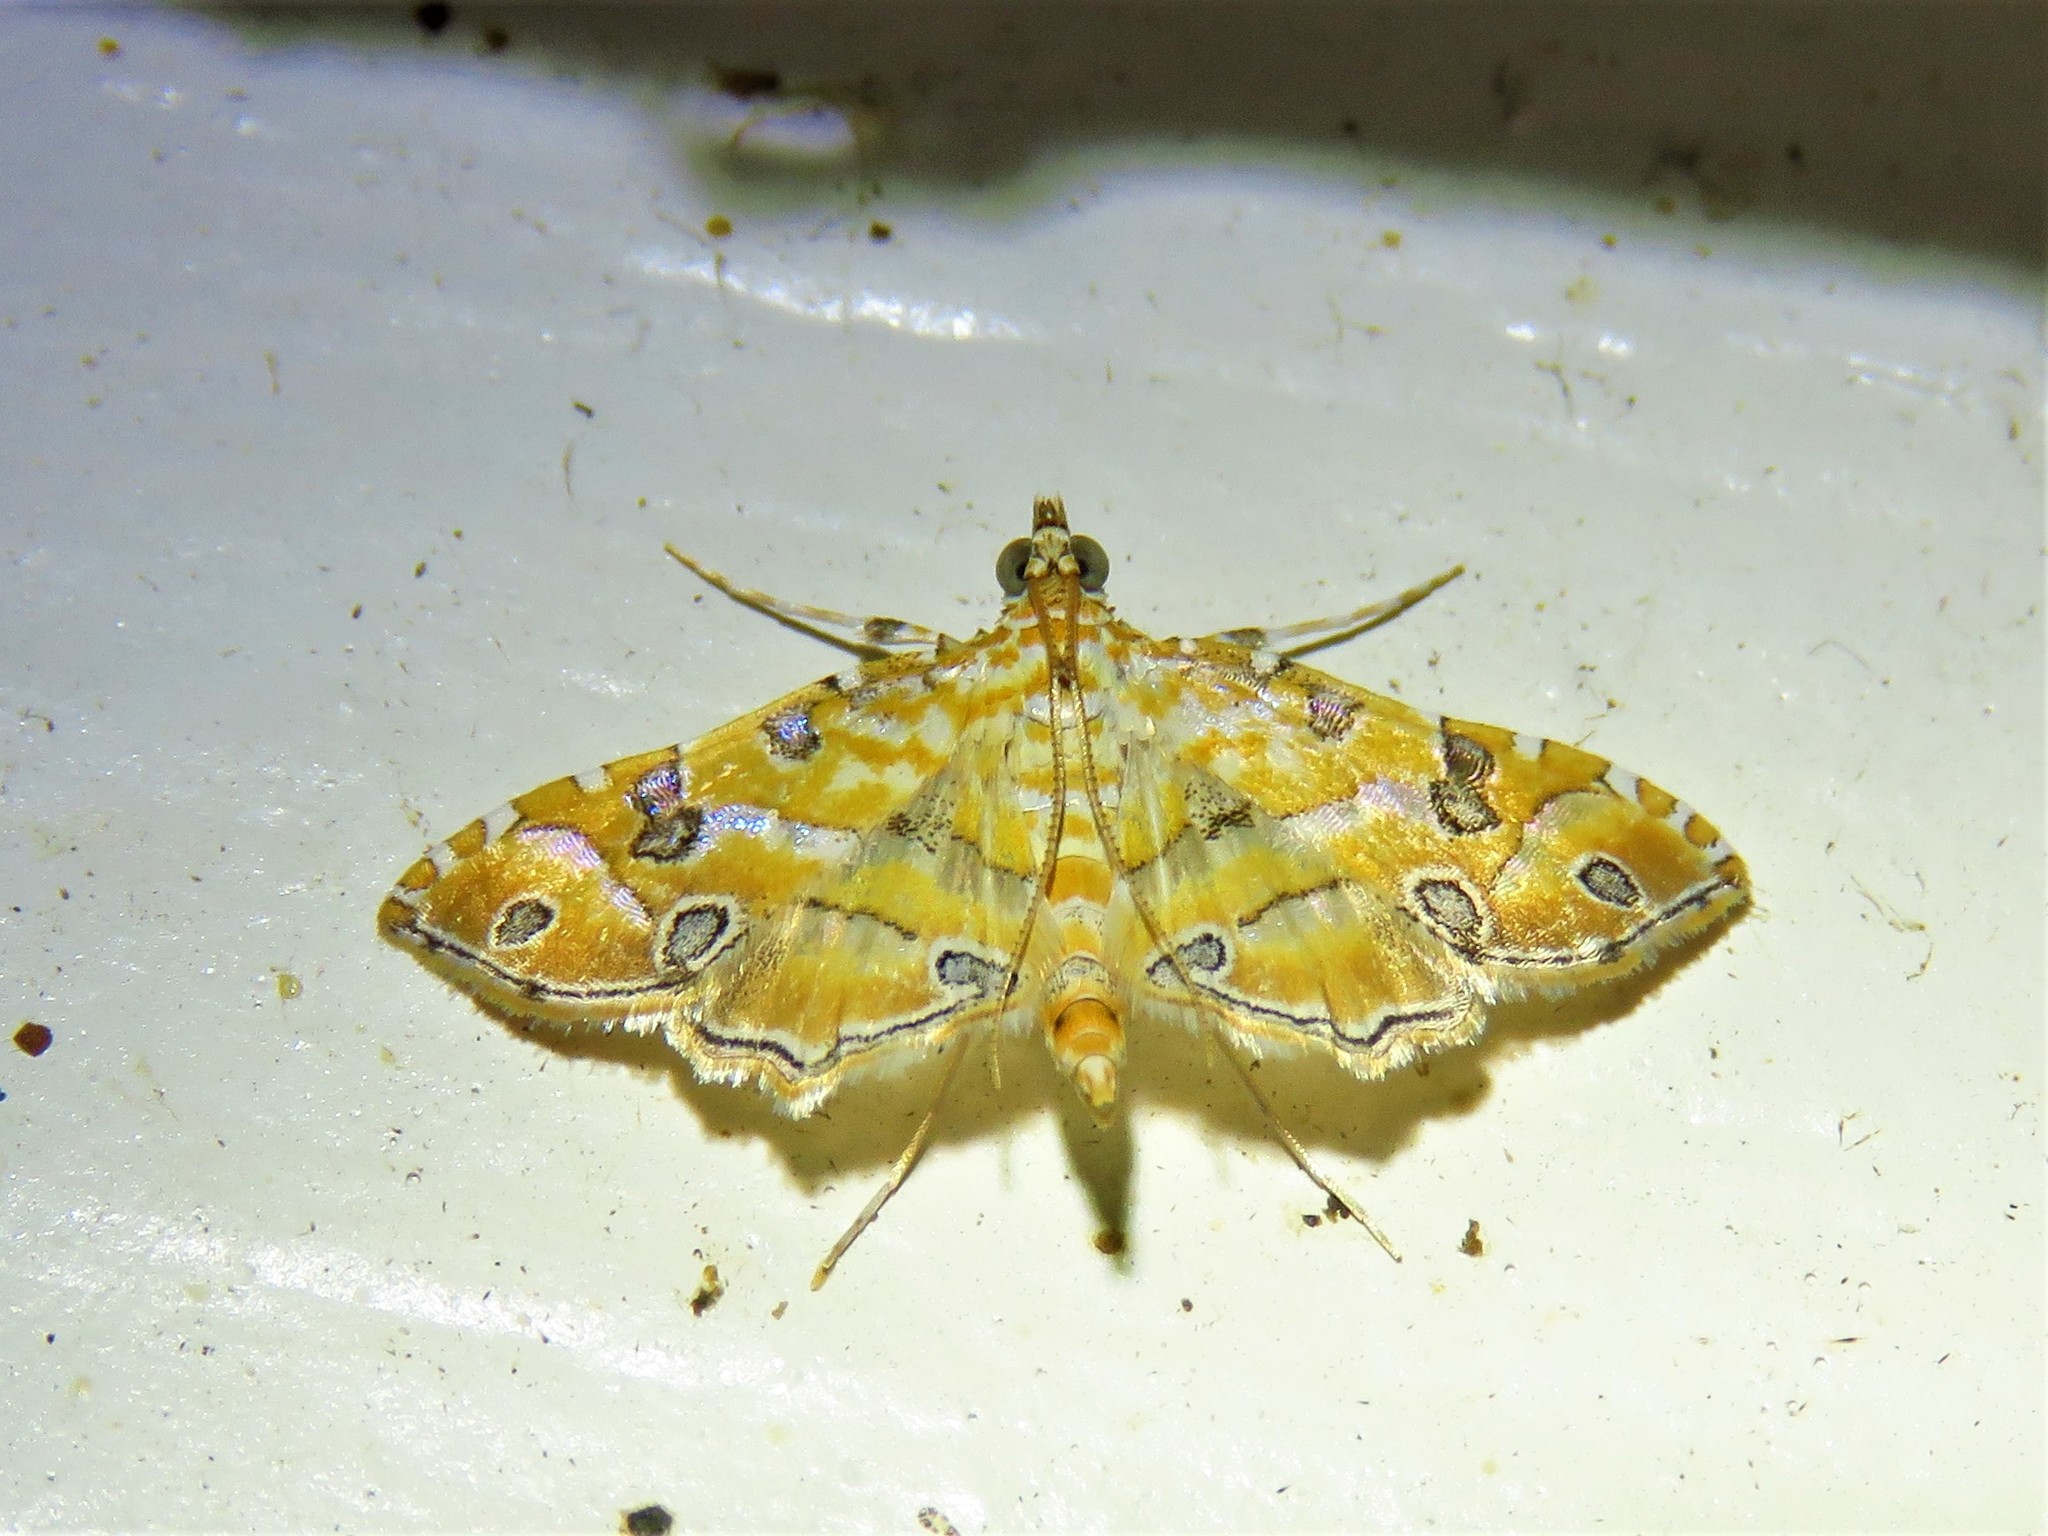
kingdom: Animalia
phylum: Arthropoda
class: Insecta
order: Lepidoptera
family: Crambidae
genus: Ommatospila
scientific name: Ommatospila narcaeusalis
